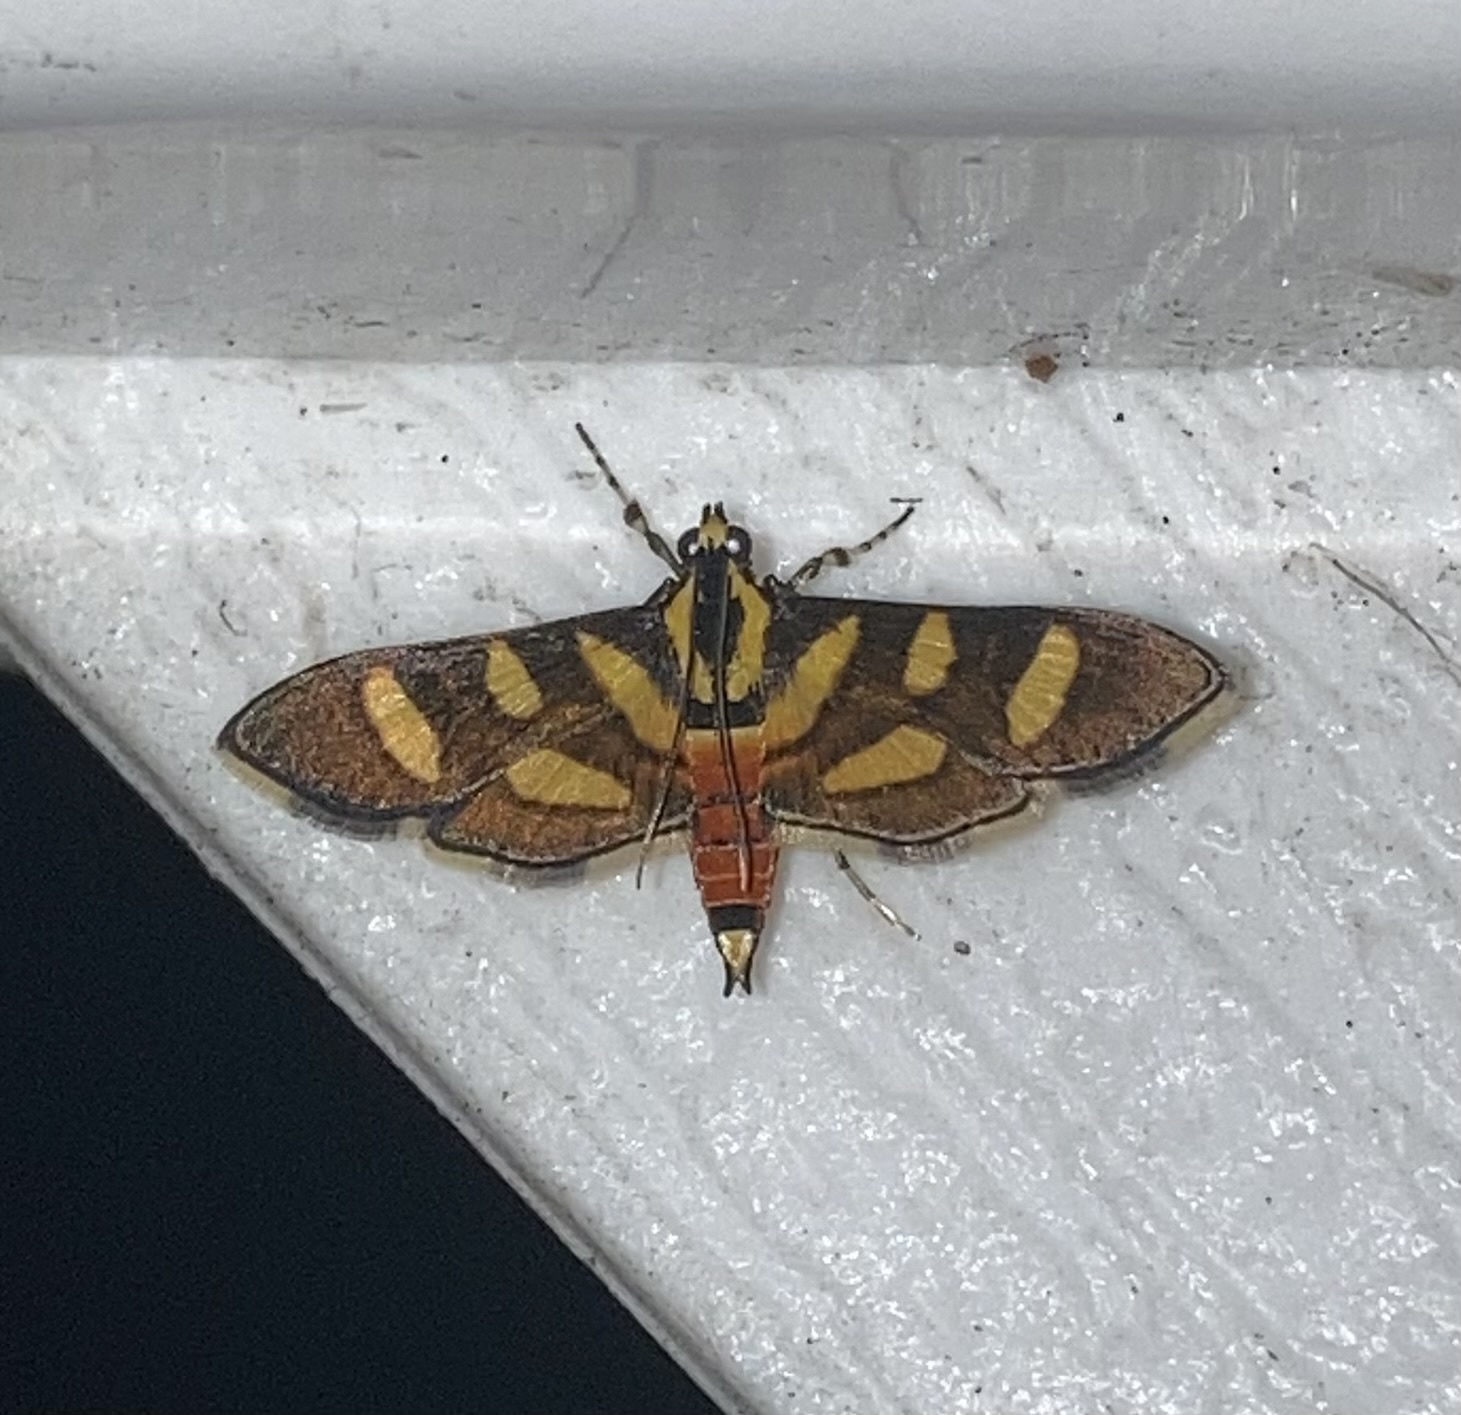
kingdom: Animalia
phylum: Arthropoda
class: Insecta
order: Lepidoptera
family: Crambidae
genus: Syngamia
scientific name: Syngamia florella
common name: Orange-spotted flower moth
